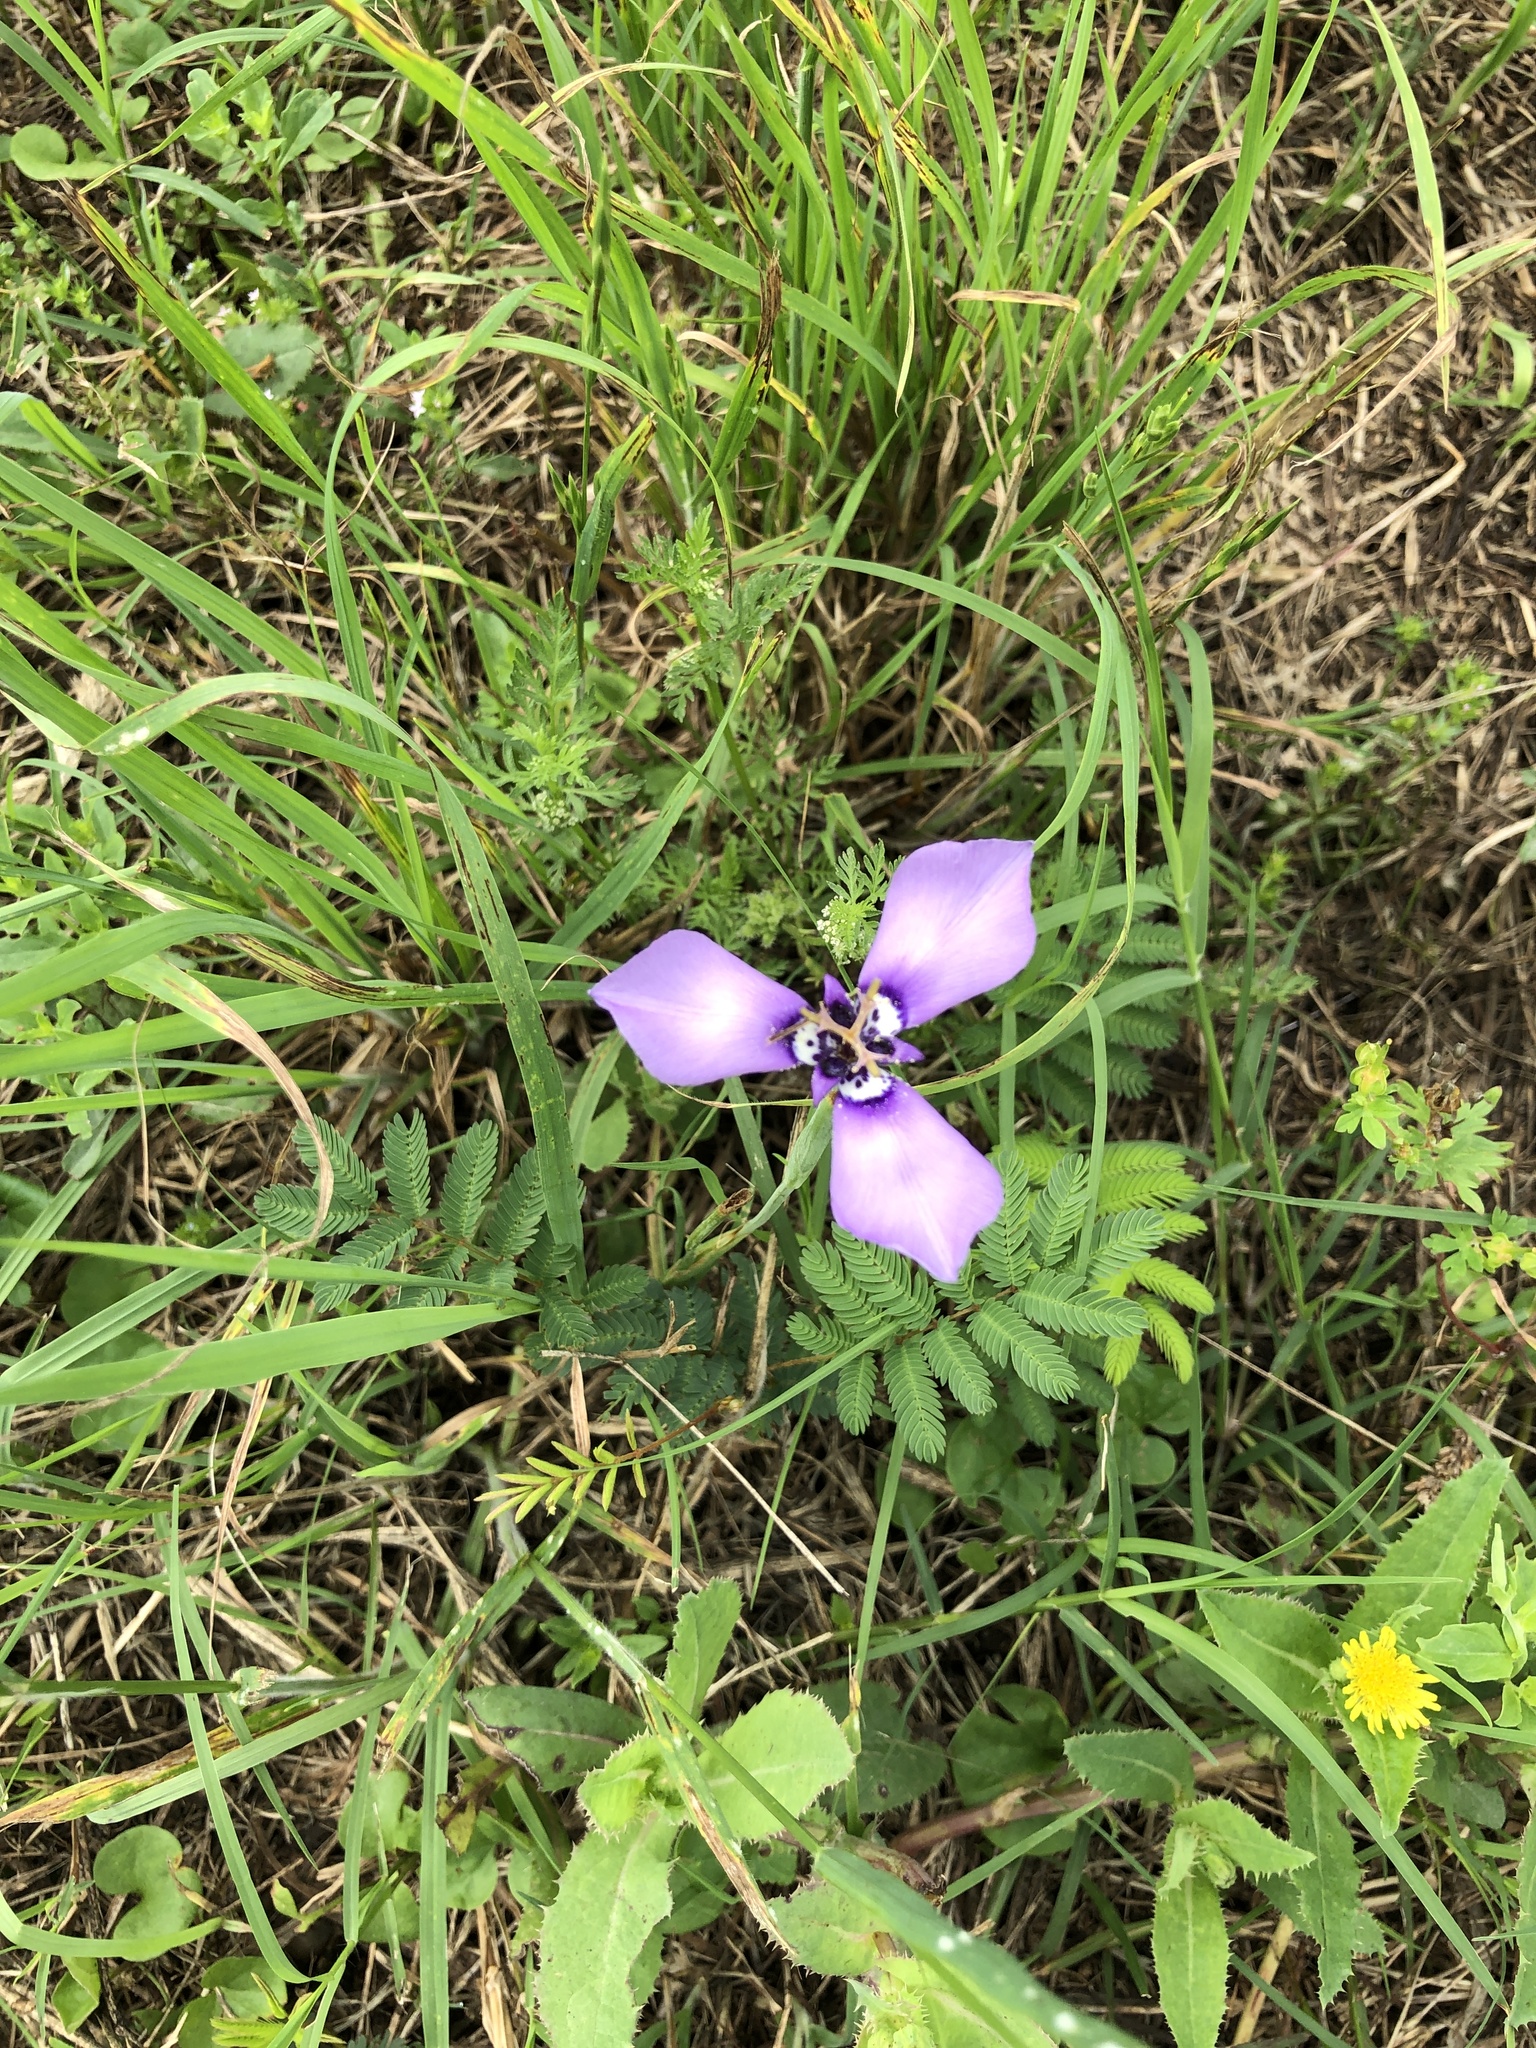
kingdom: Plantae
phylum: Tracheophyta
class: Liliopsida
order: Asparagales
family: Iridaceae
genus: Herbertia
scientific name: Herbertia lahue
